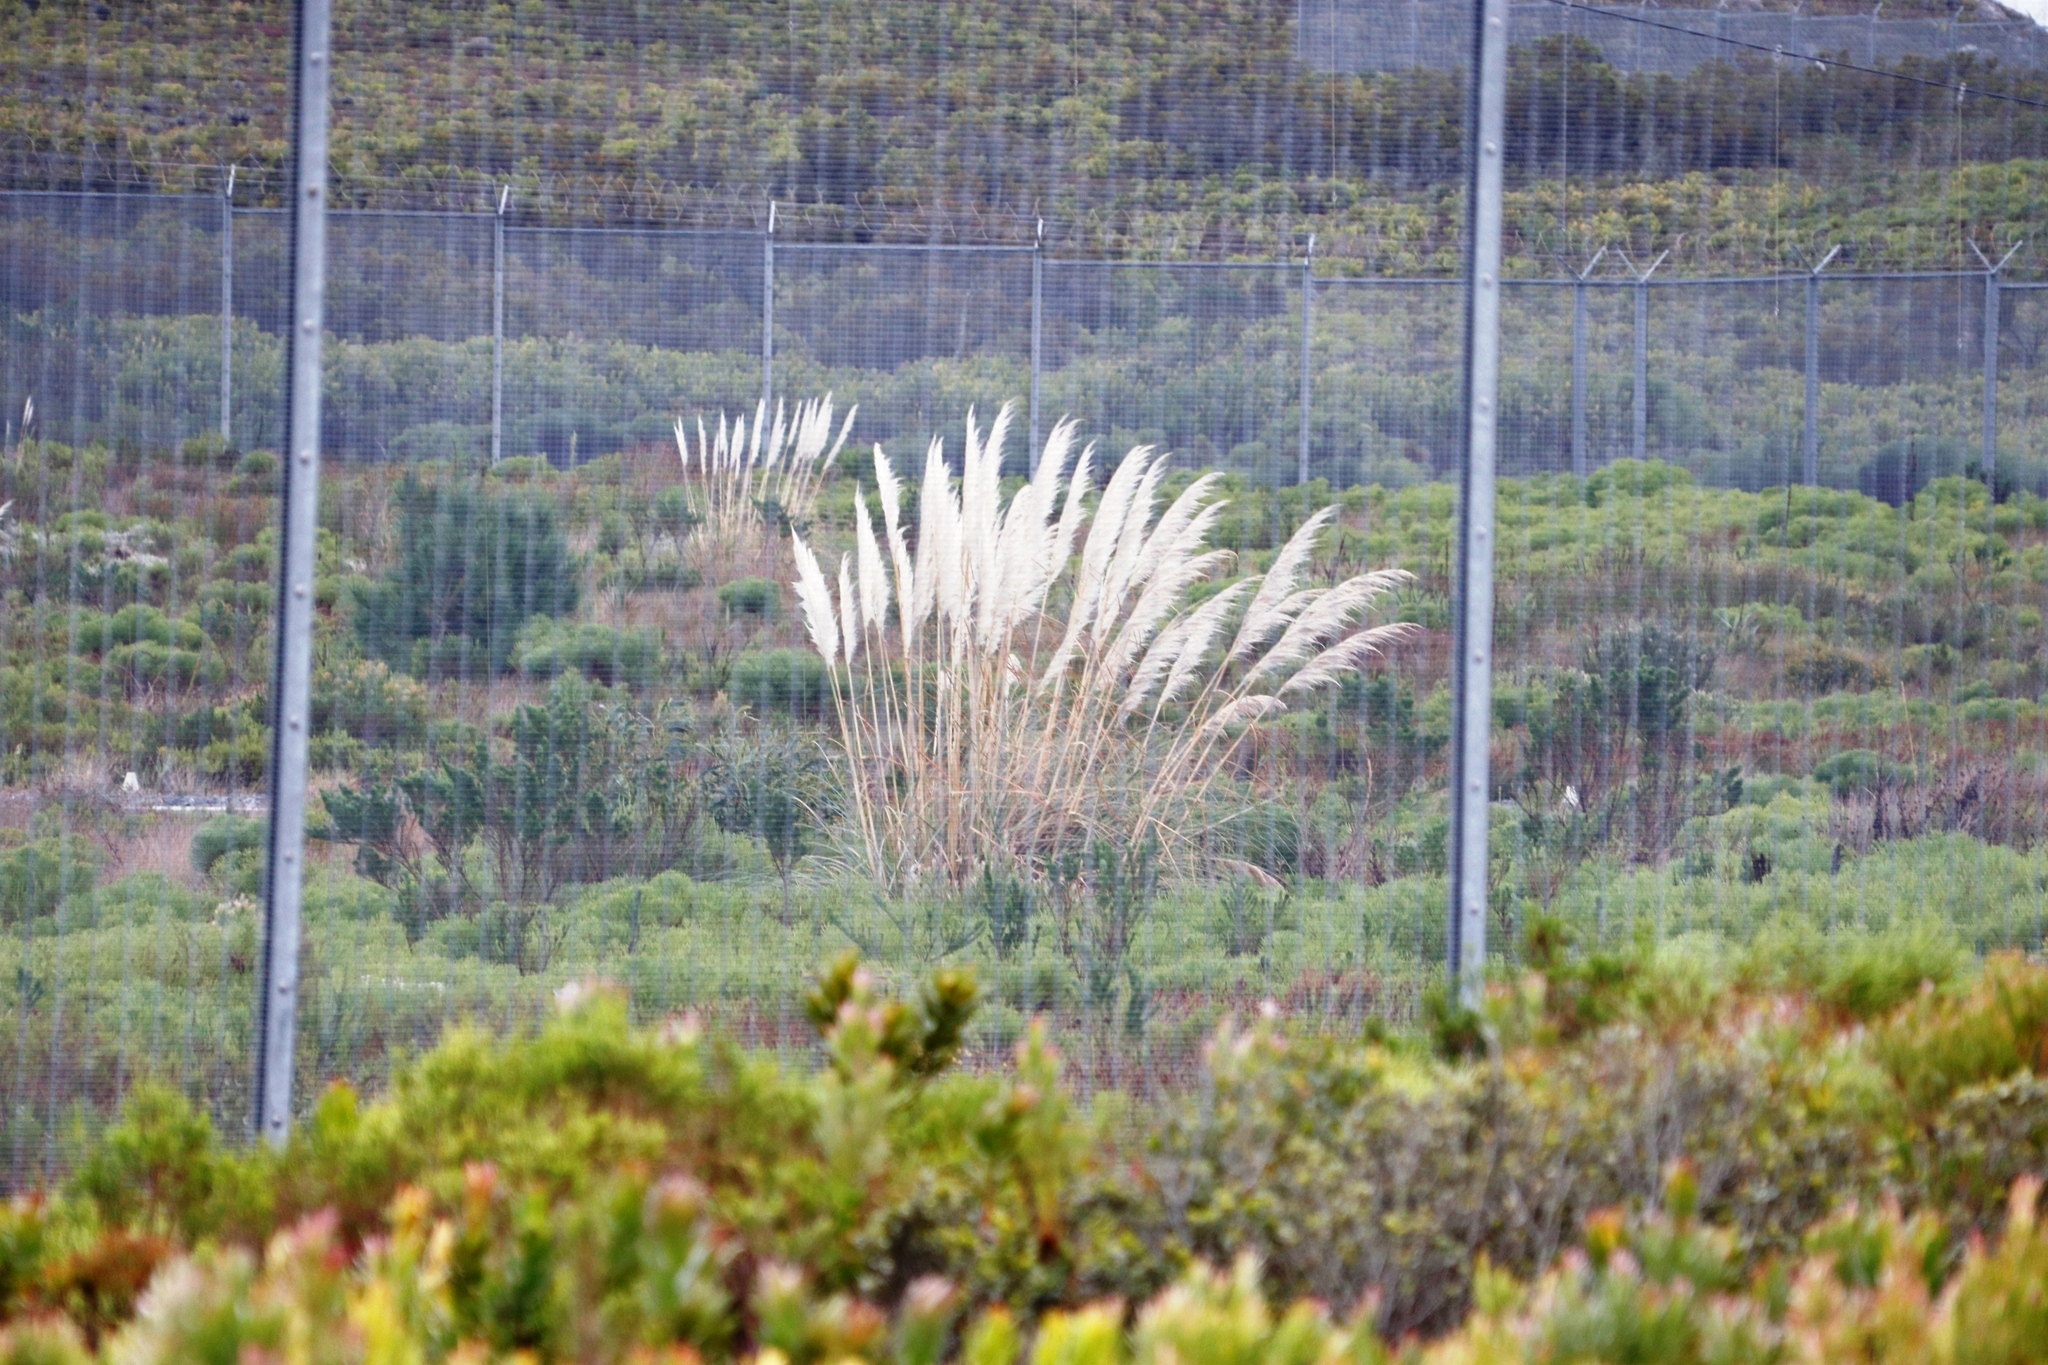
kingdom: Plantae
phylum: Tracheophyta
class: Liliopsida
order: Poales
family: Poaceae
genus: Cortaderia
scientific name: Cortaderia selloana
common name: Uruguayan pampas grass
